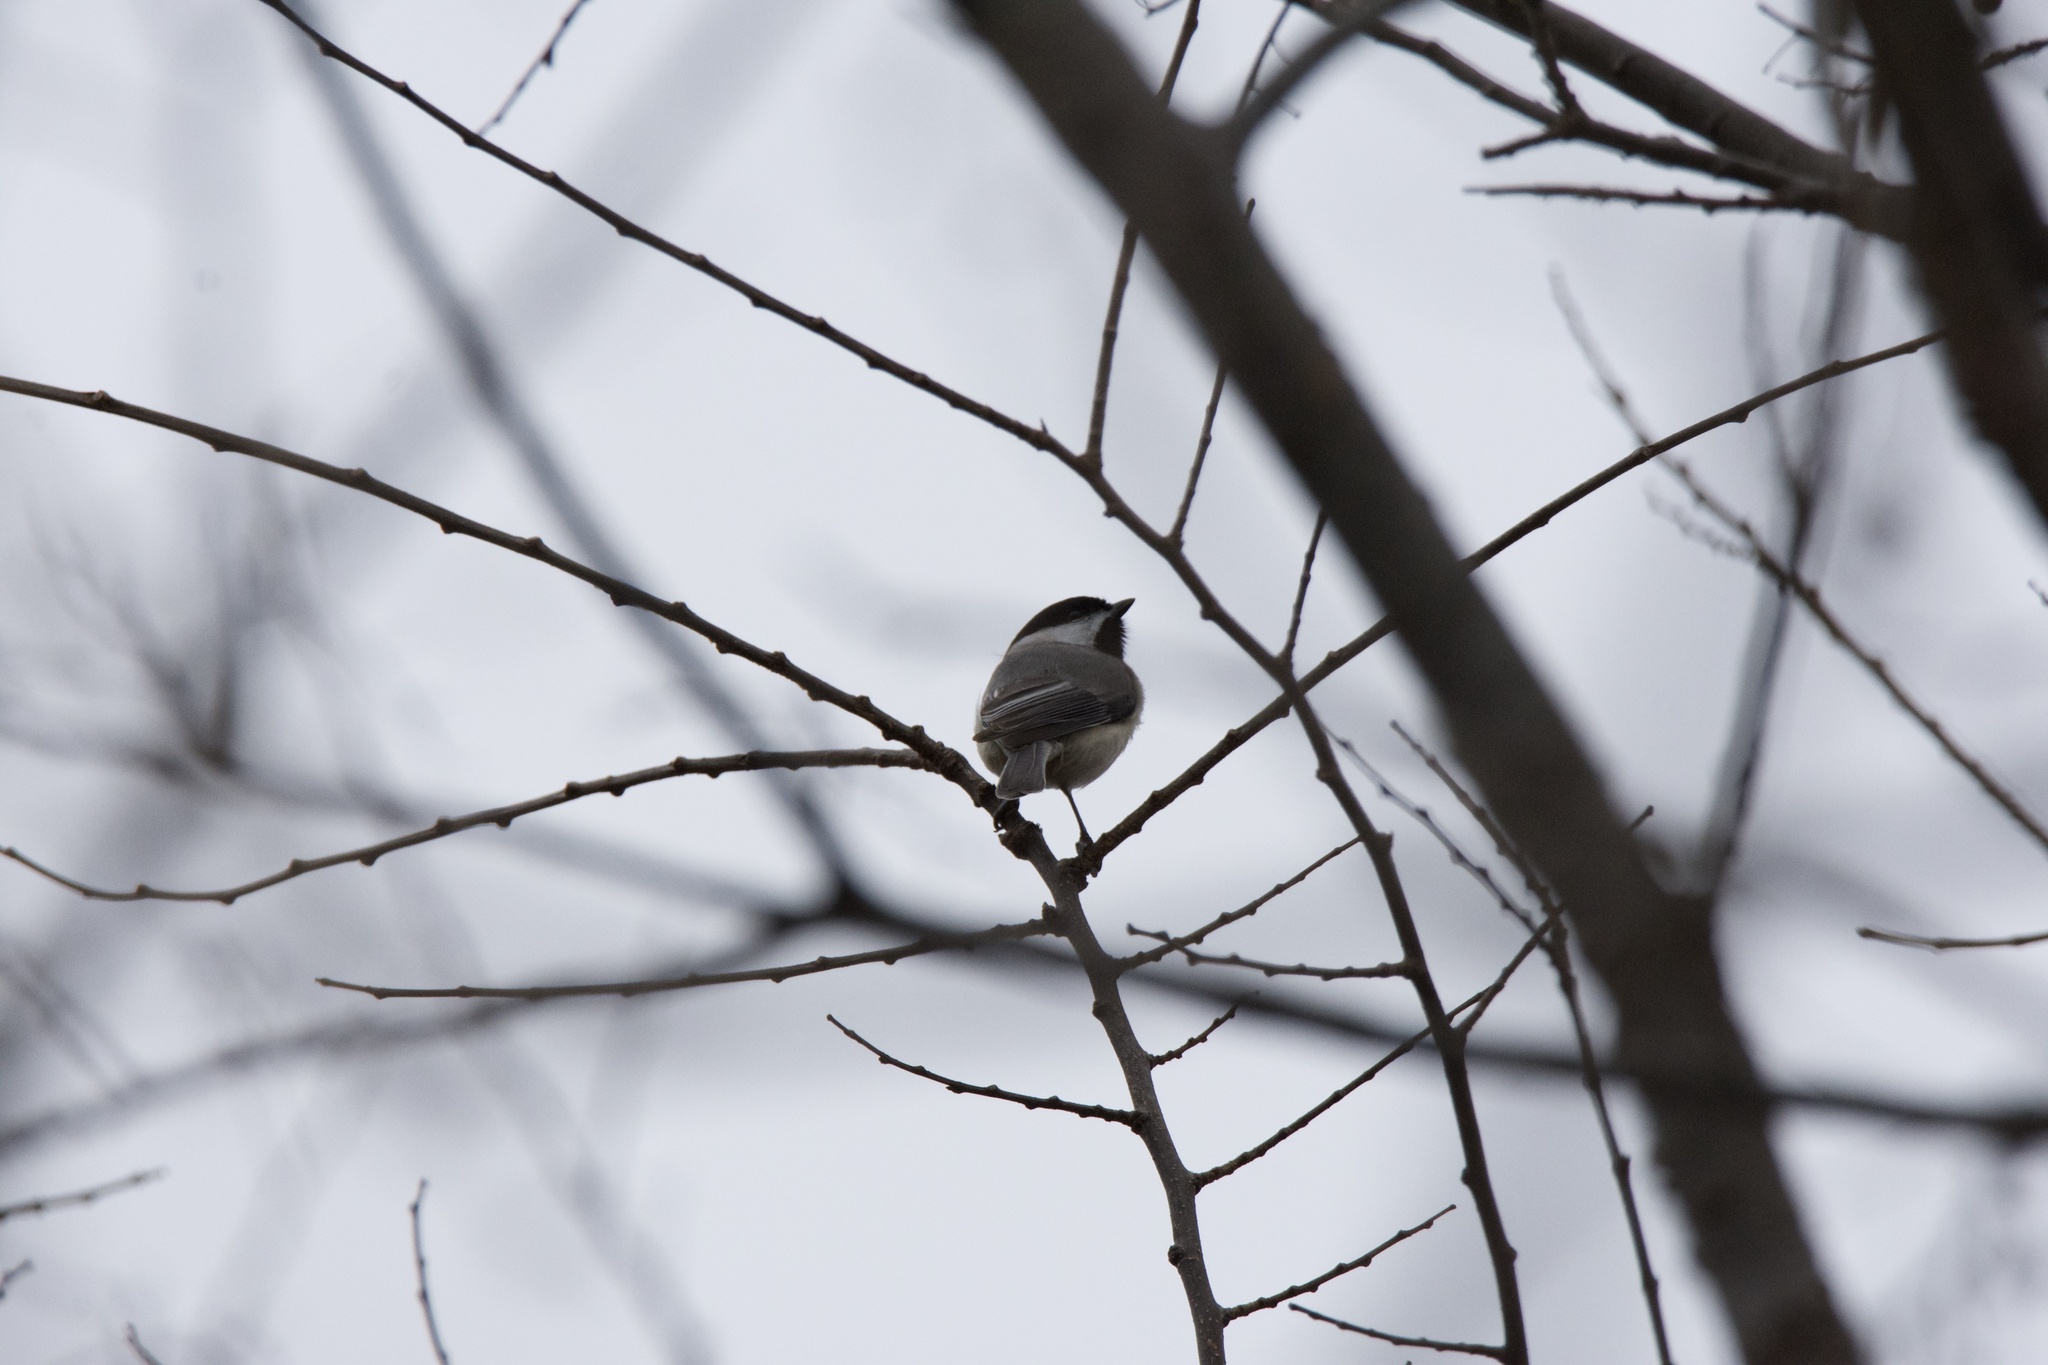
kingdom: Animalia
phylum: Chordata
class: Aves
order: Passeriformes
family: Paridae
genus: Poecile
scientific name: Poecile carolinensis
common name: Carolina chickadee
